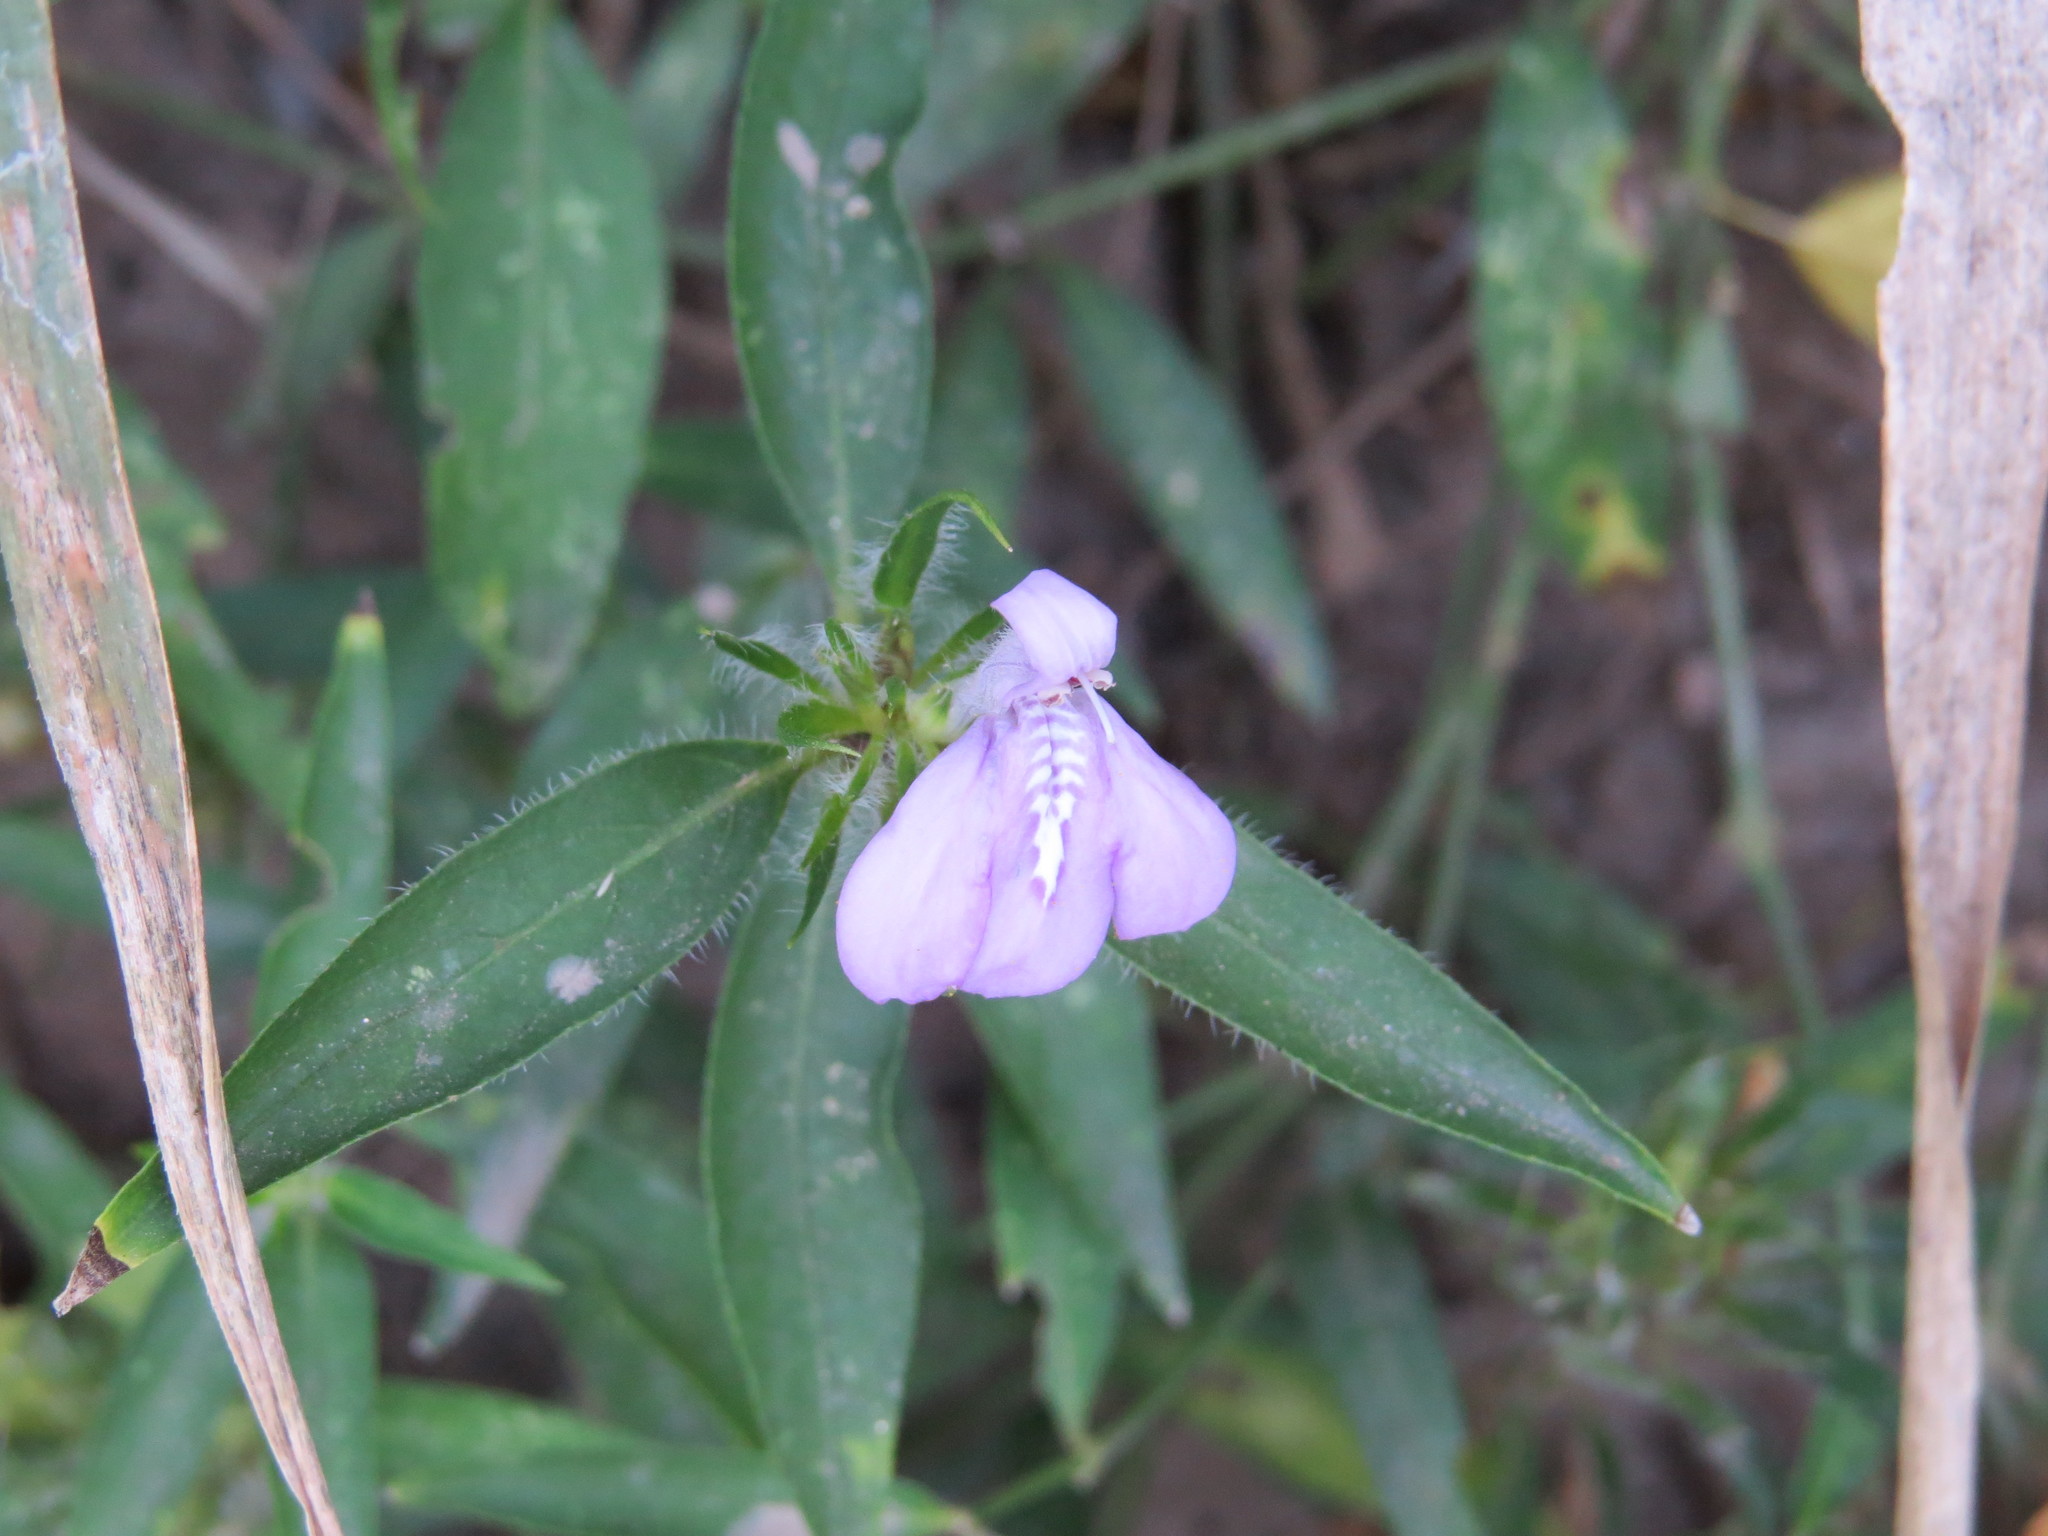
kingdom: Plantae
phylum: Tracheophyta
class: Magnoliopsida
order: Lamiales
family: Acanthaceae
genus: Justicia
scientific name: Justicia squarrosa
